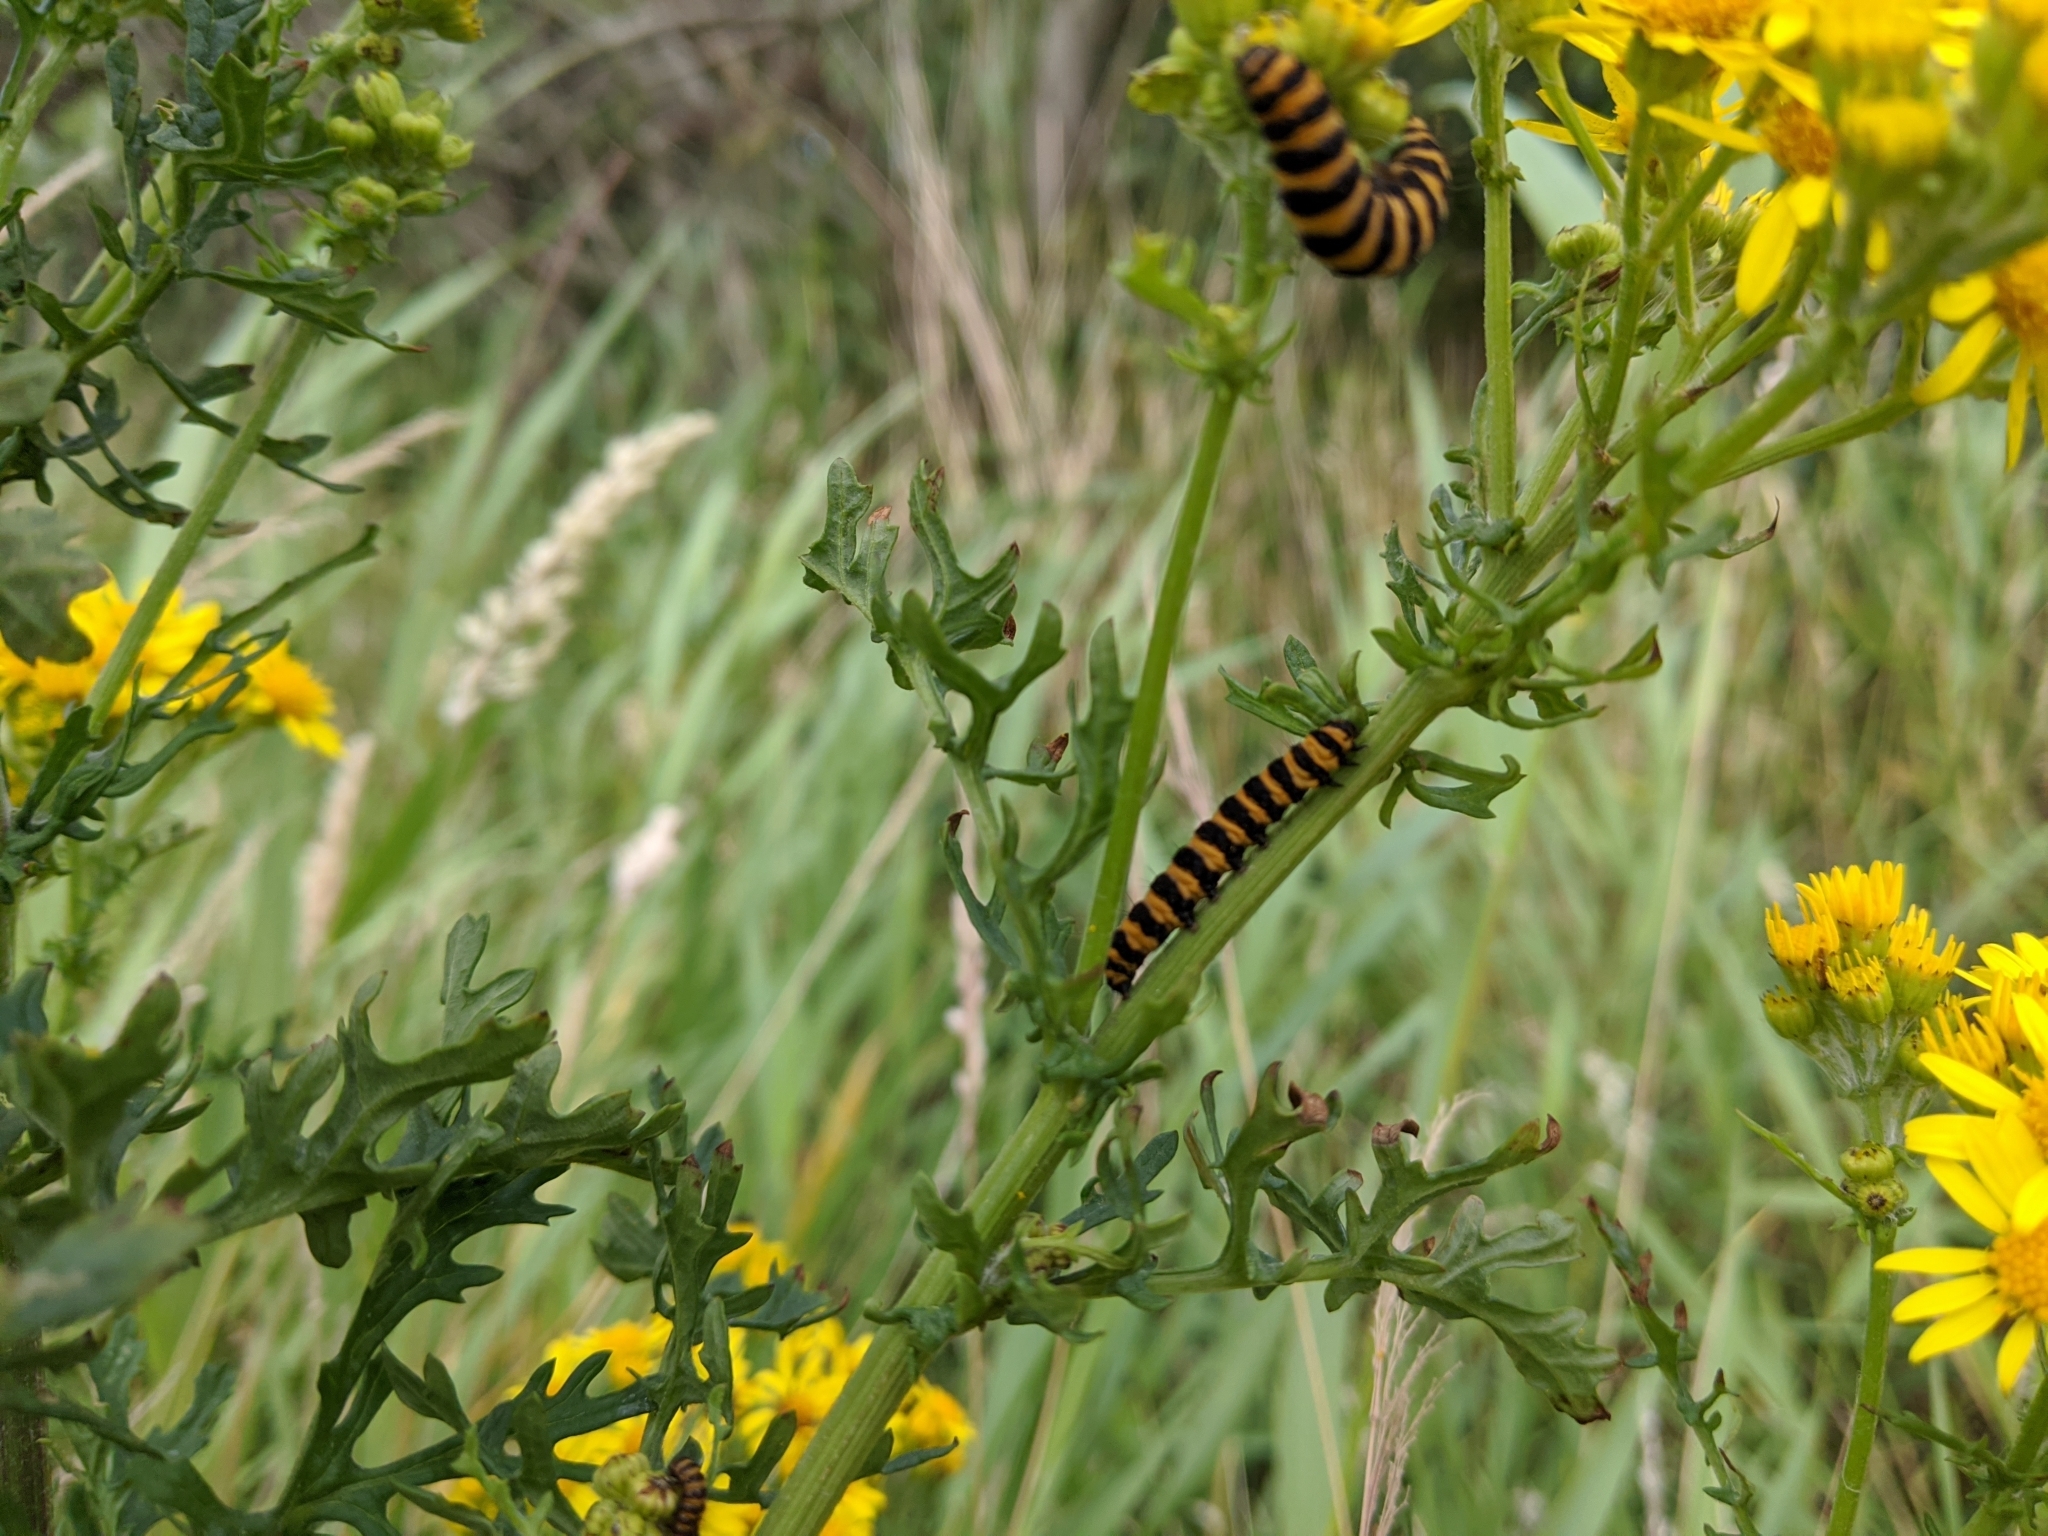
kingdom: Animalia
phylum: Arthropoda
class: Insecta
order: Lepidoptera
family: Erebidae
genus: Tyria
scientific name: Tyria jacobaeae
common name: Cinnabar
